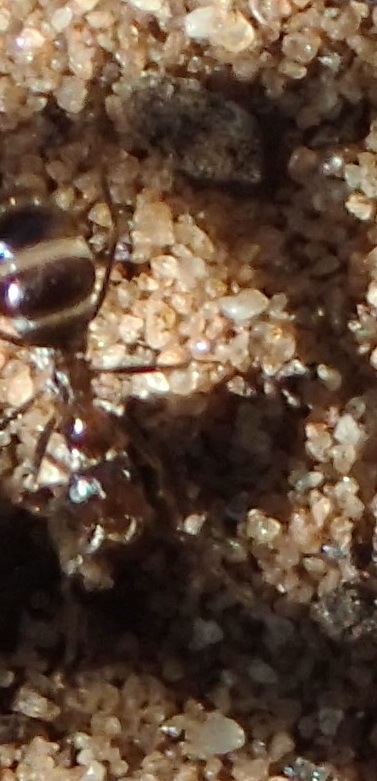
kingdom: Animalia
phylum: Arthropoda
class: Insecta
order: Hymenoptera
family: Formicidae
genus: Anoplolepis
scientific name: Anoplolepis steingroeveri
